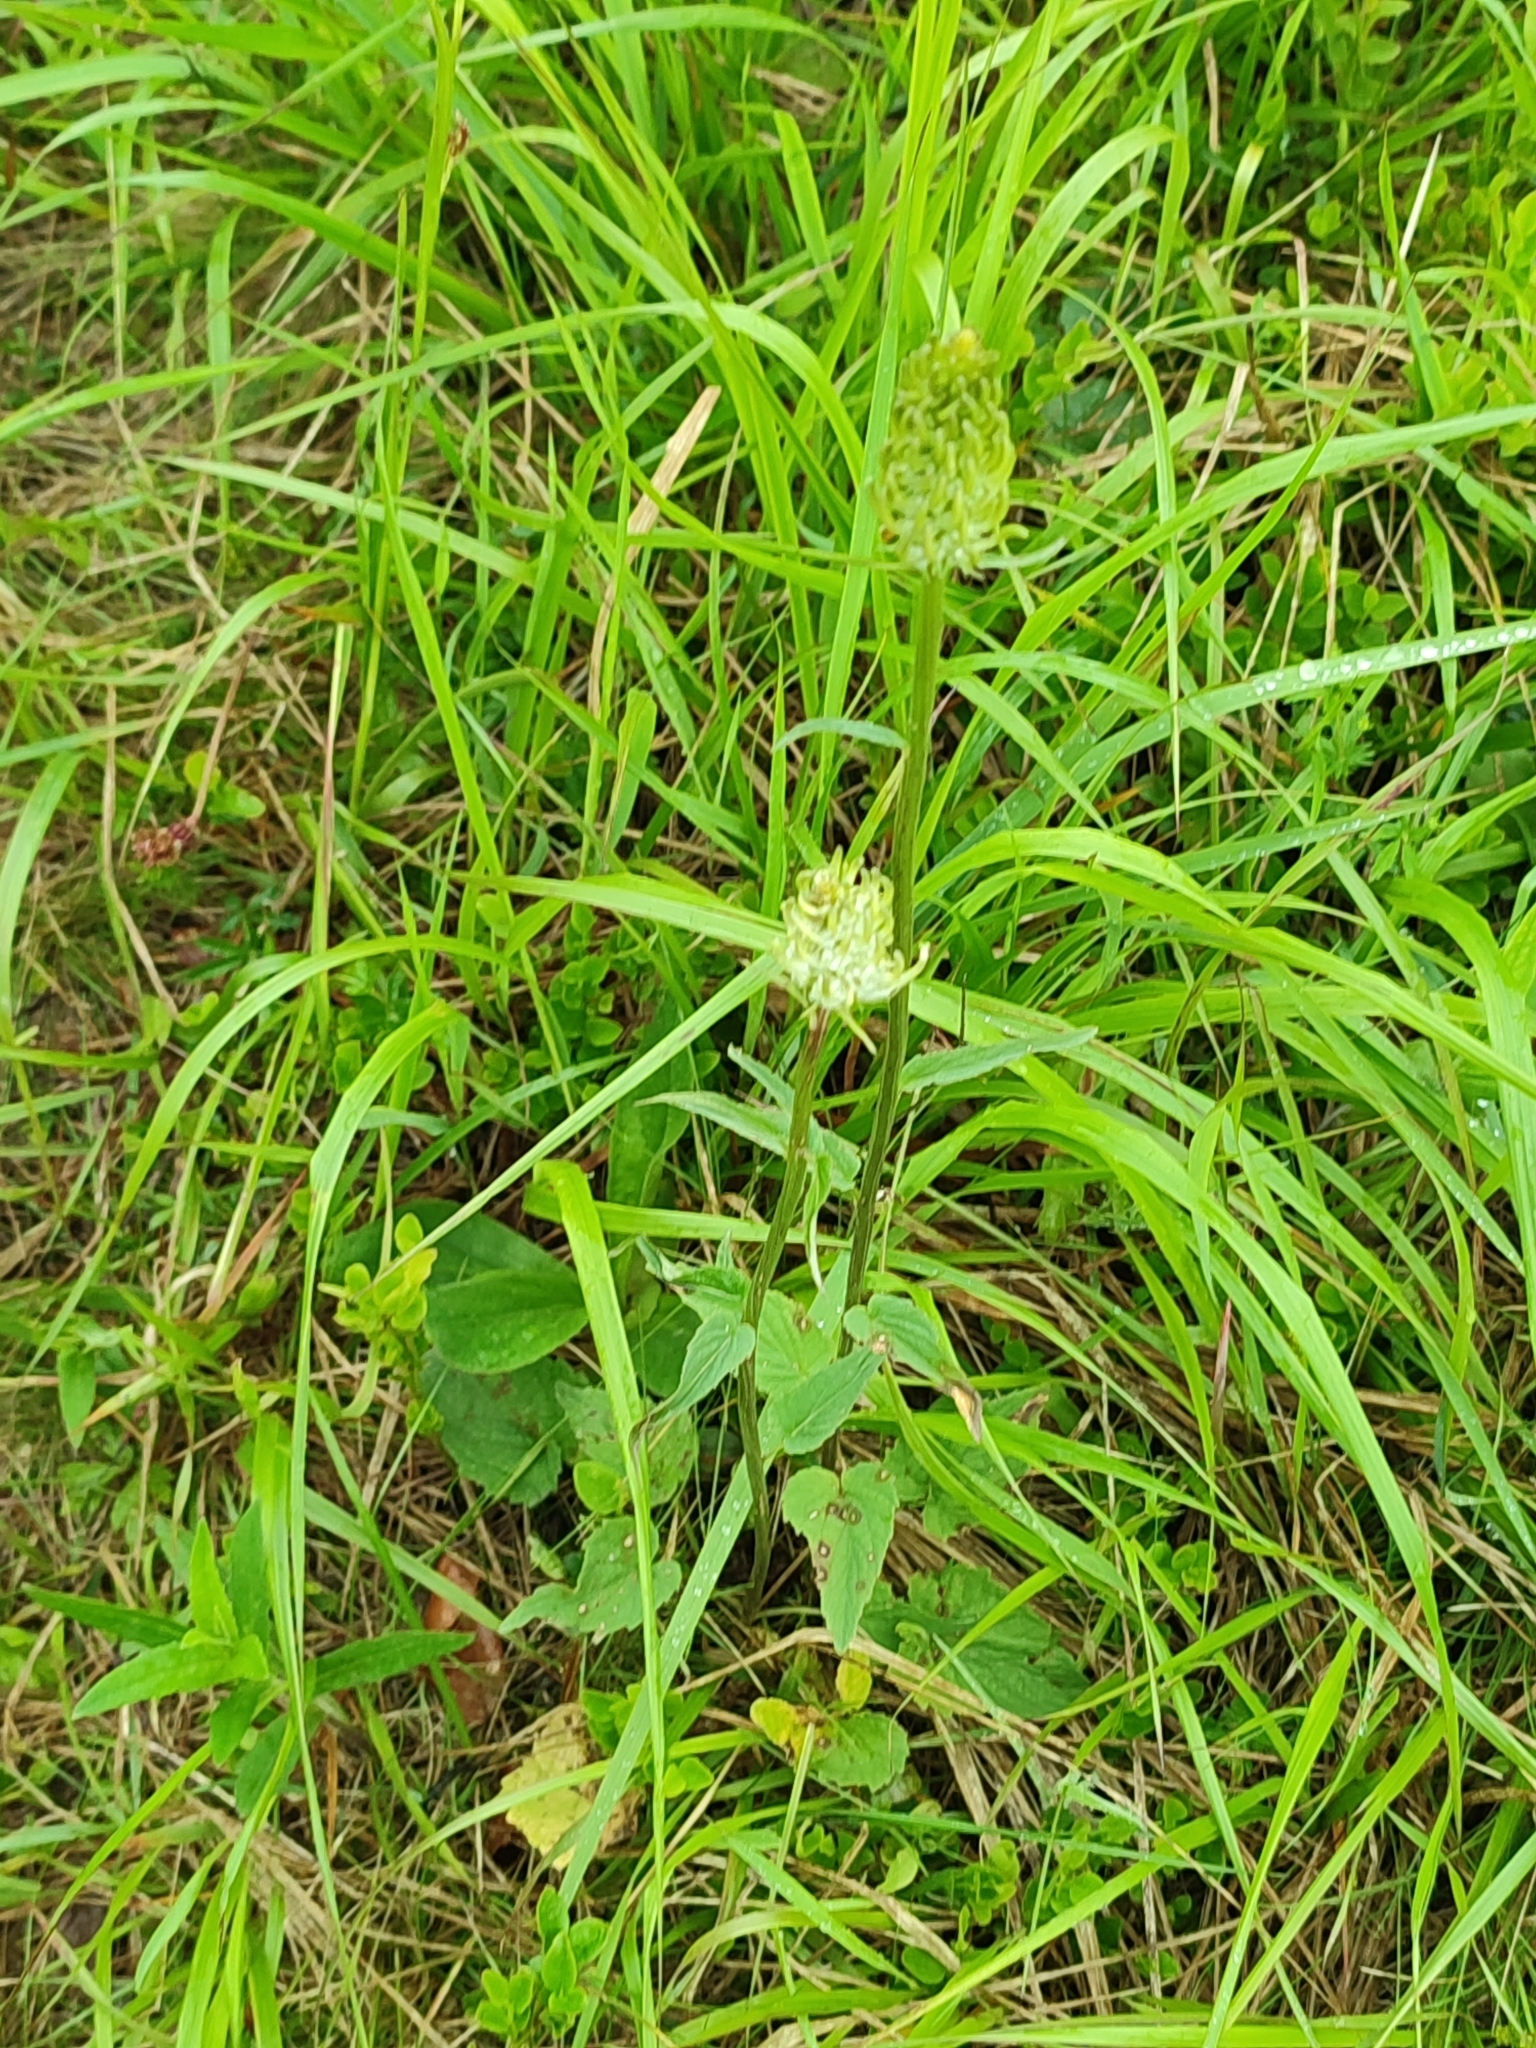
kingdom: Plantae
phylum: Tracheophyta
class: Magnoliopsida
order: Asterales
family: Campanulaceae
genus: Phyteuma
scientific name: Phyteuma spicatum
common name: Spiked rampion
